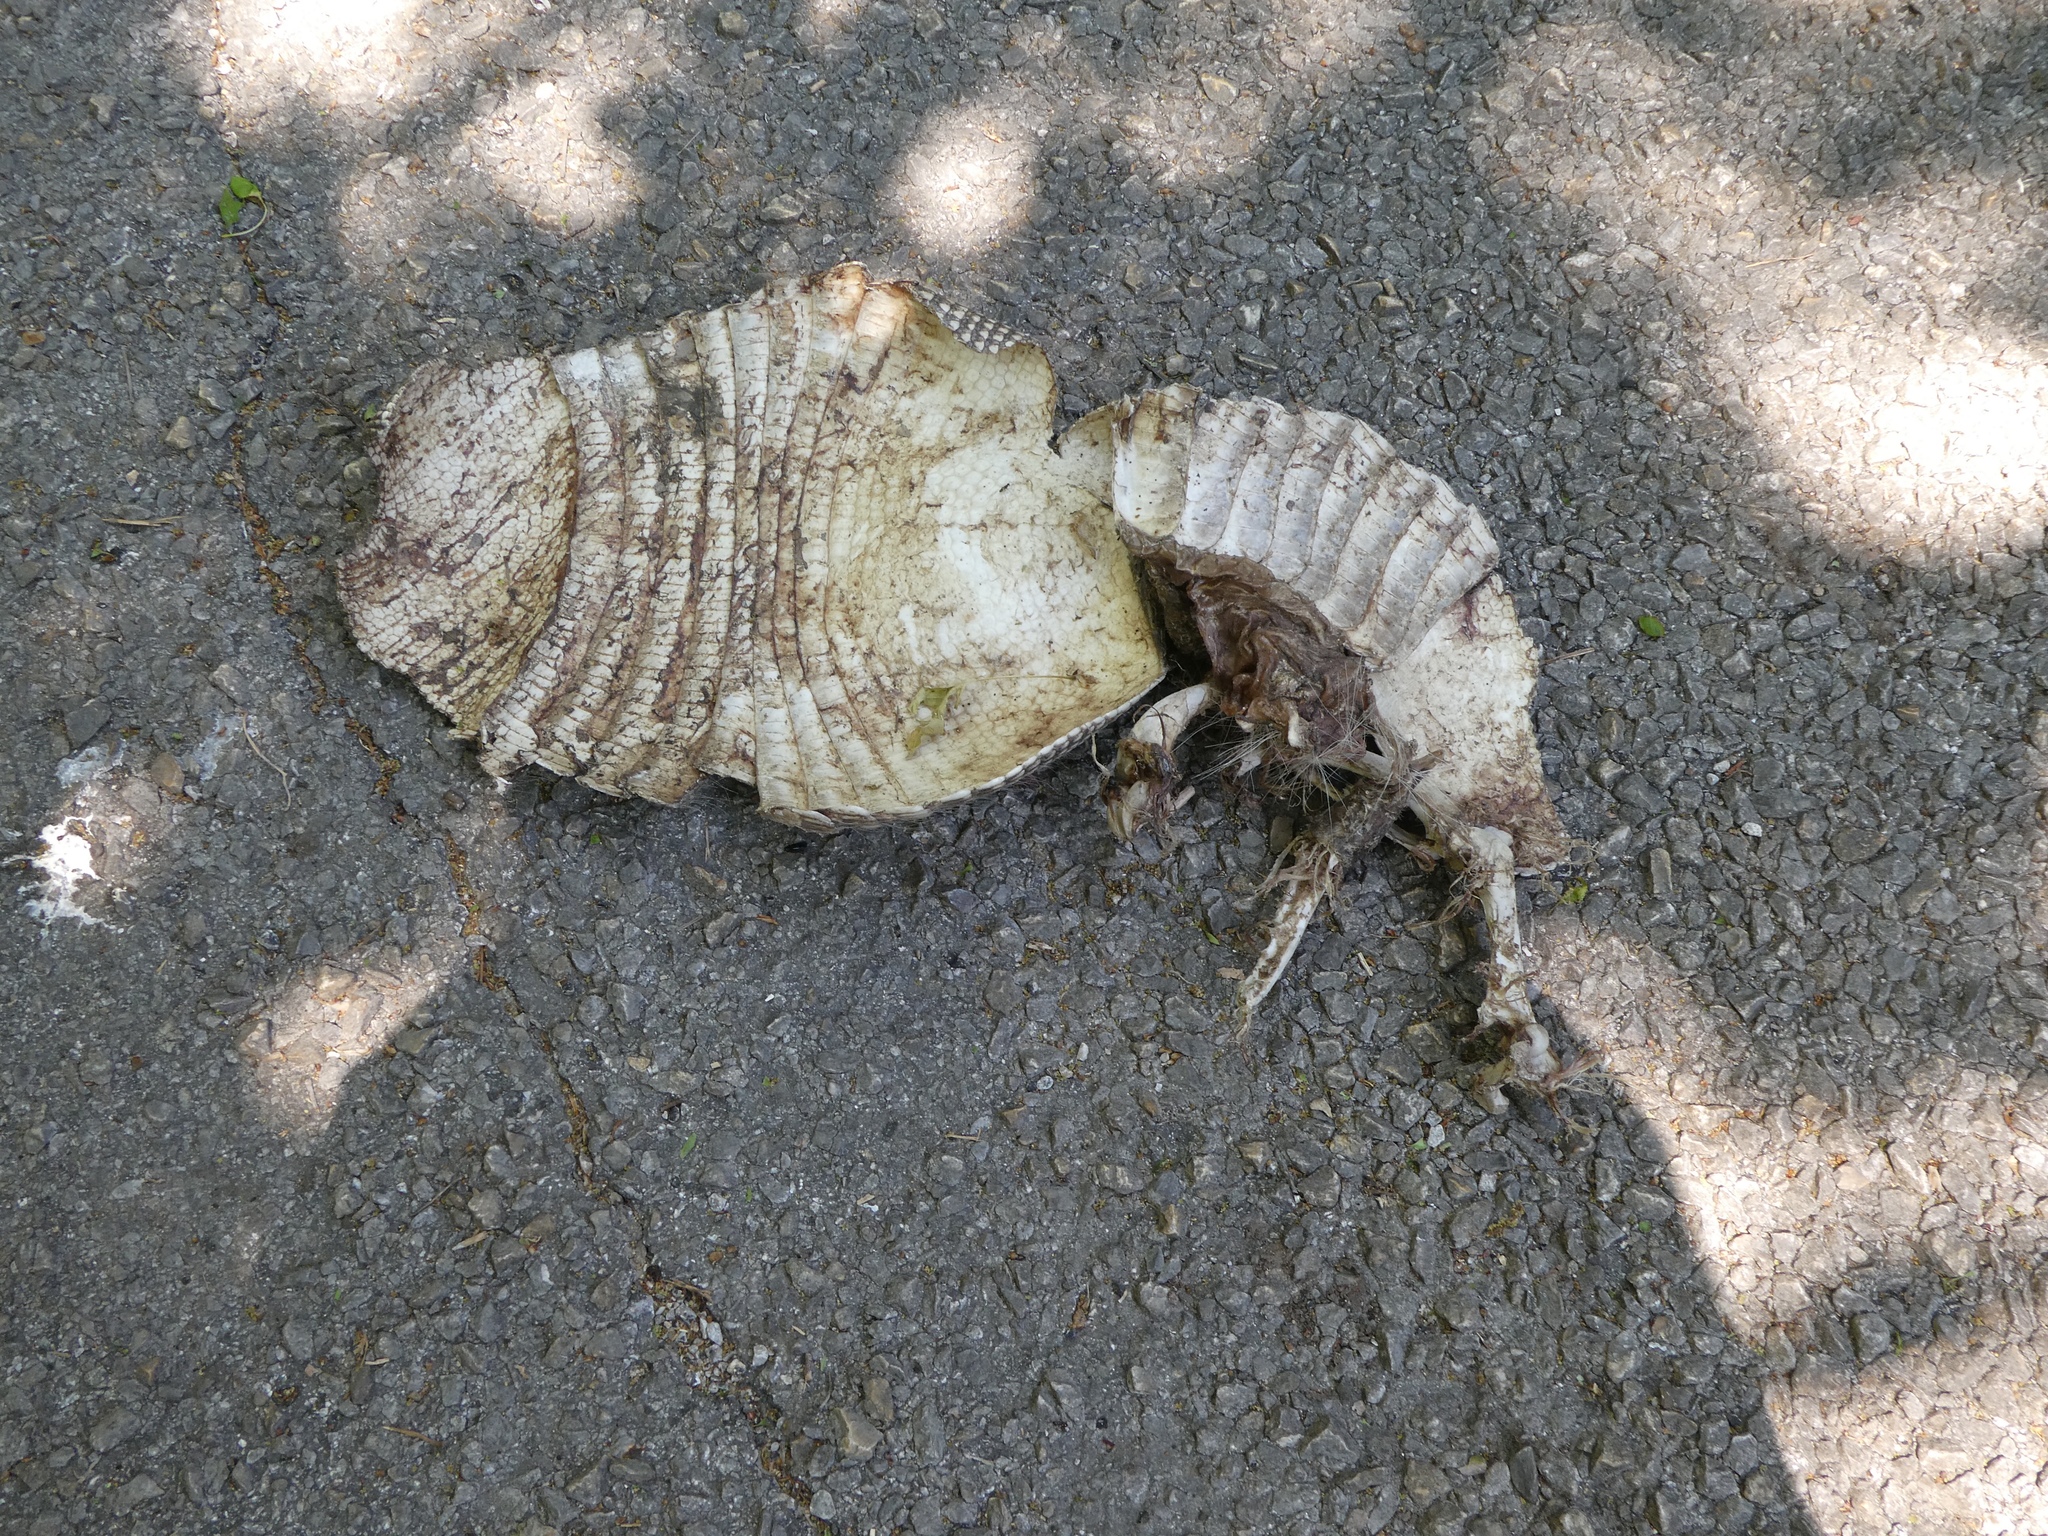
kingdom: Animalia
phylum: Chordata
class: Mammalia
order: Cingulata
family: Dasypodidae
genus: Dasypus
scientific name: Dasypus novemcinctus
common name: Nine-banded armadillo
